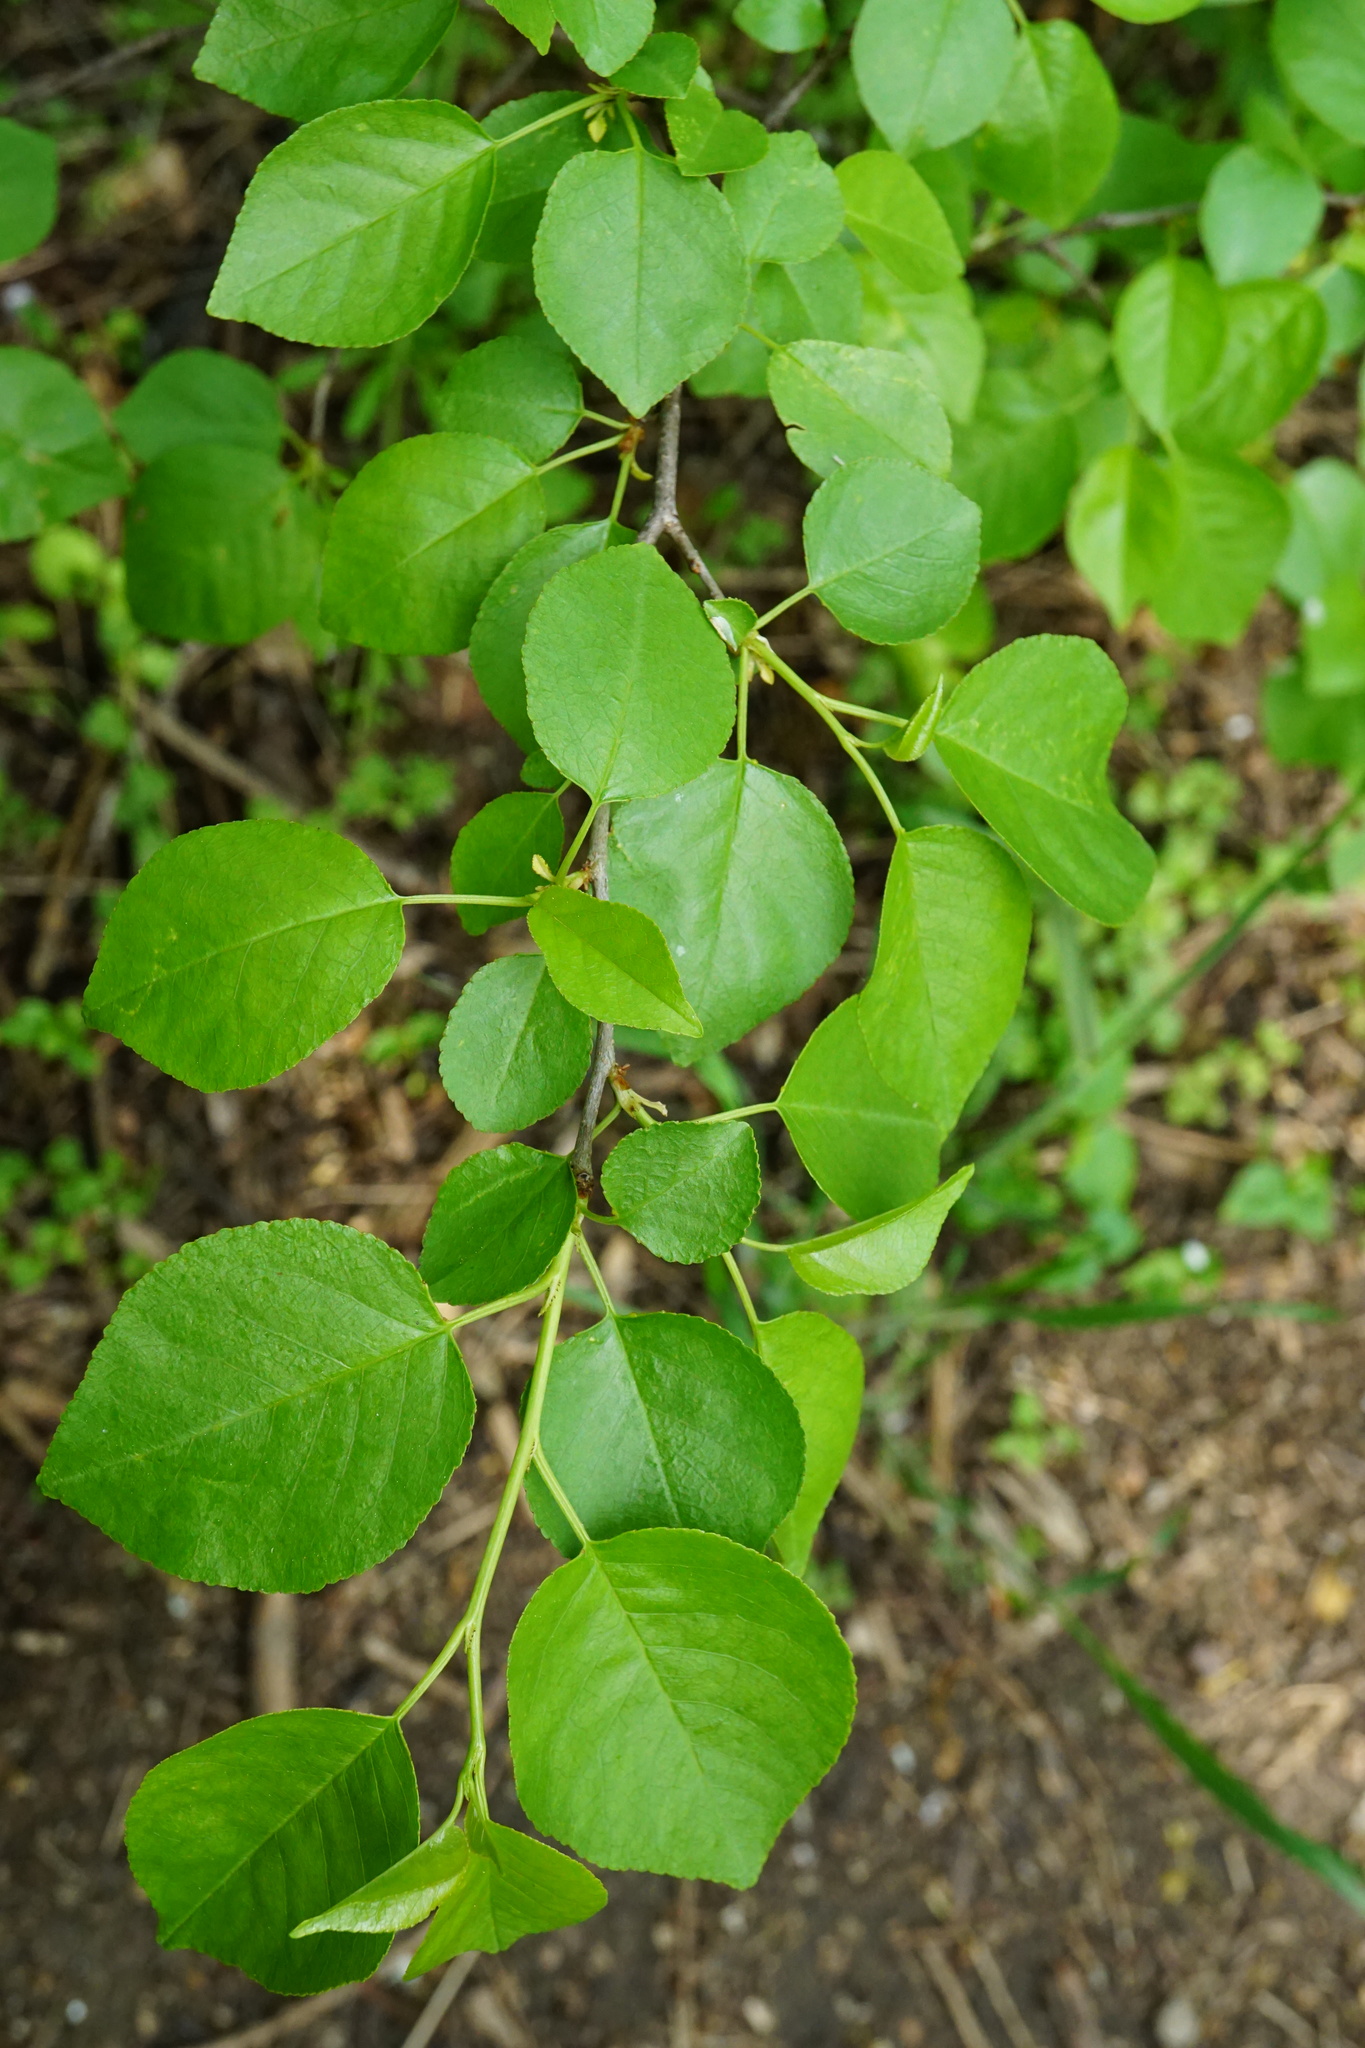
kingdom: Plantae
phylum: Tracheophyta
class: Magnoliopsida
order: Rosales
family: Rosaceae
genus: Prunus
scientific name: Prunus mahaleb
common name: Mahaleb cherry
